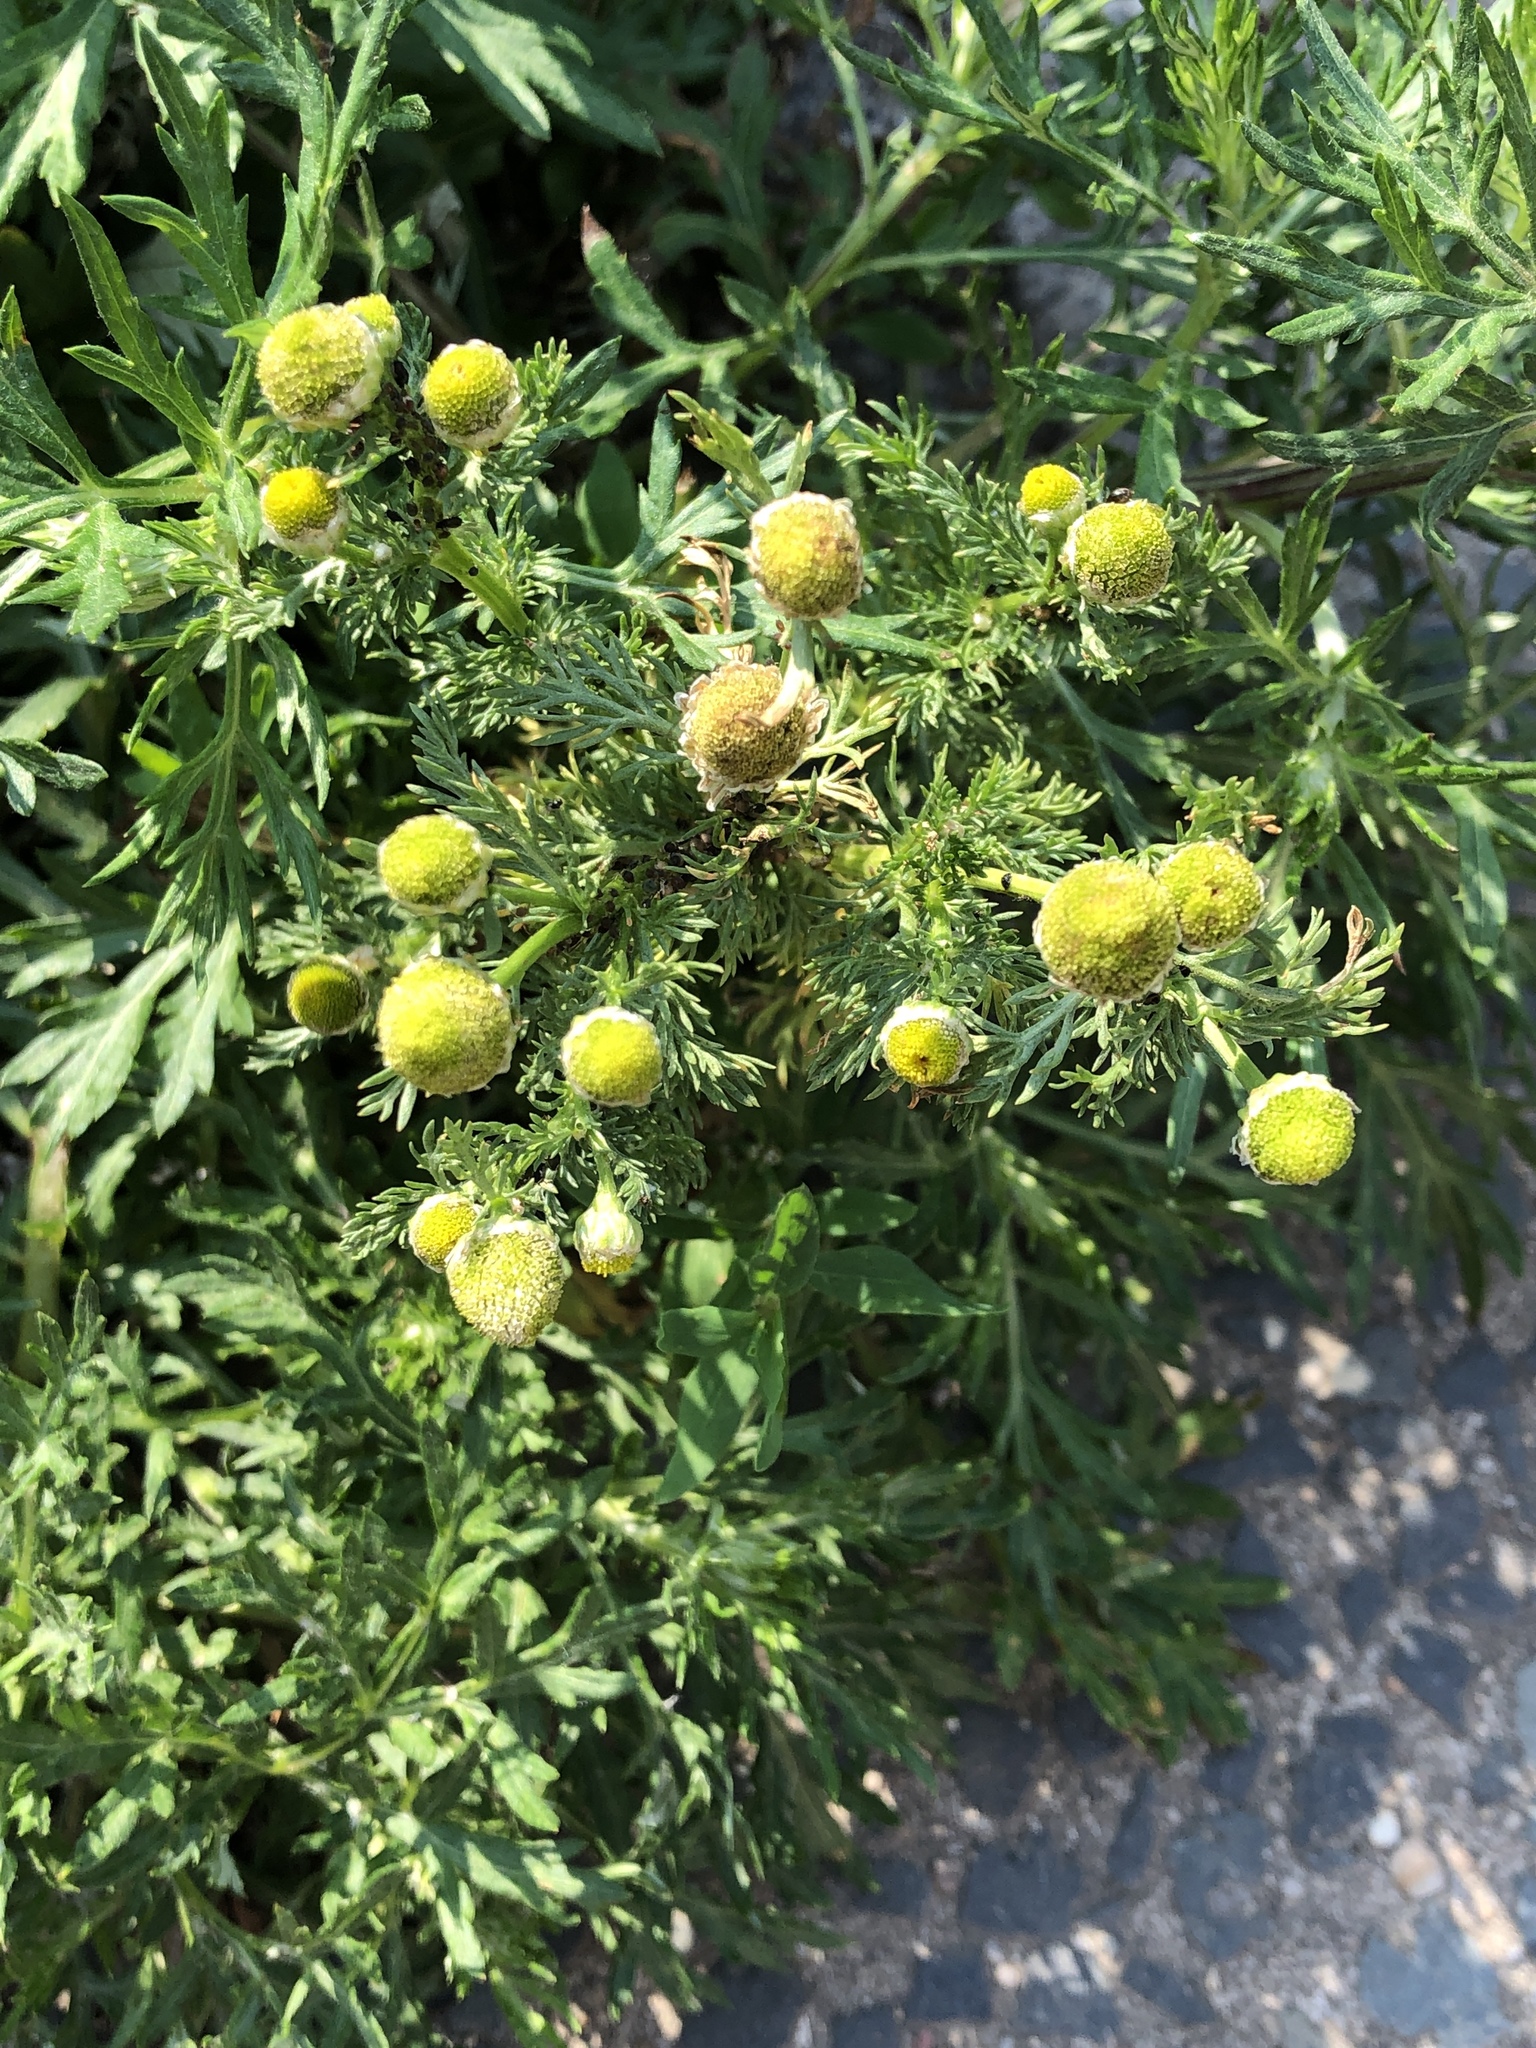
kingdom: Plantae
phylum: Tracheophyta
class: Magnoliopsida
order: Asterales
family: Asteraceae
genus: Matricaria
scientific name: Matricaria discoidea
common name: Disc mayweed
